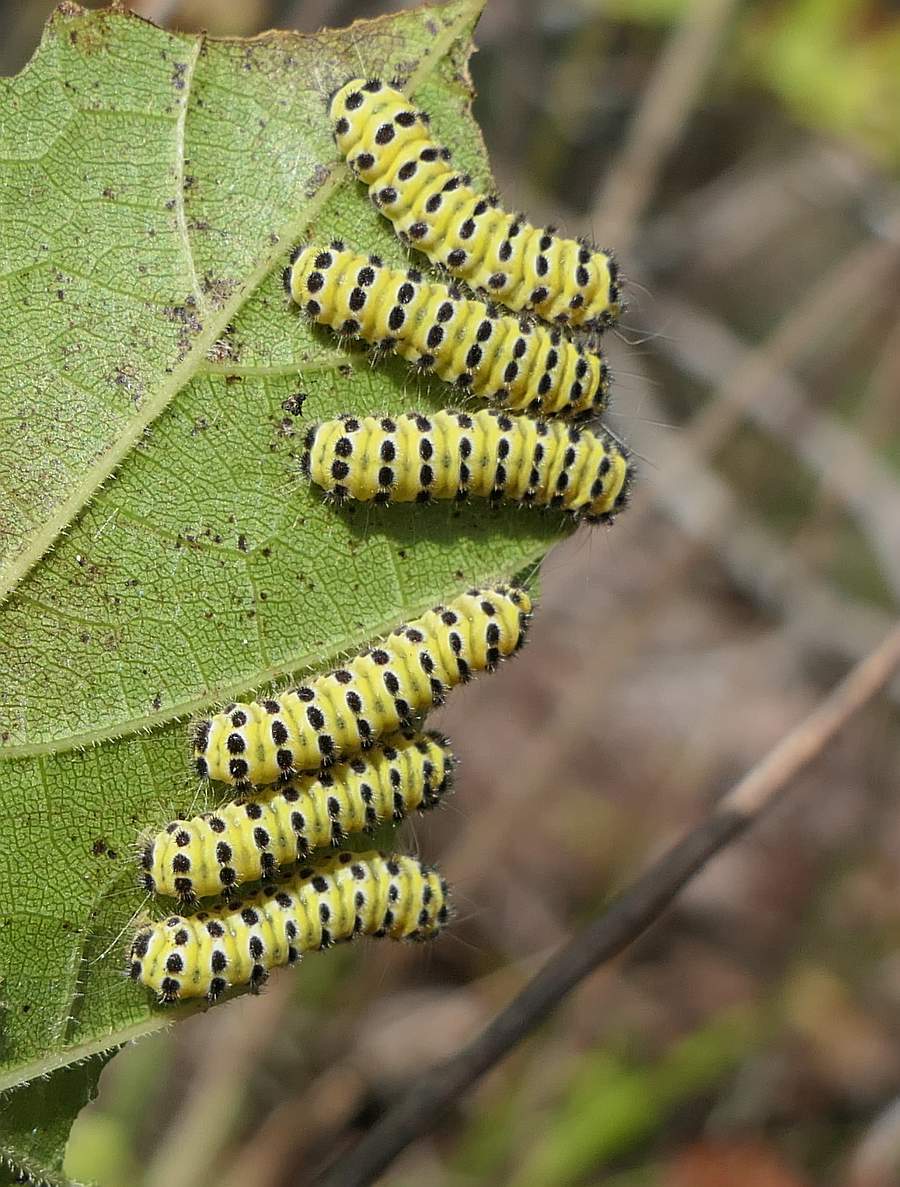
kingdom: Animalia
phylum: Arthropoda
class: Insecta
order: Lepidoptera
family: Zygaenidae
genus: Harrisina
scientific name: Harrisina americana
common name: Grapeleaf skeletonizer moth
